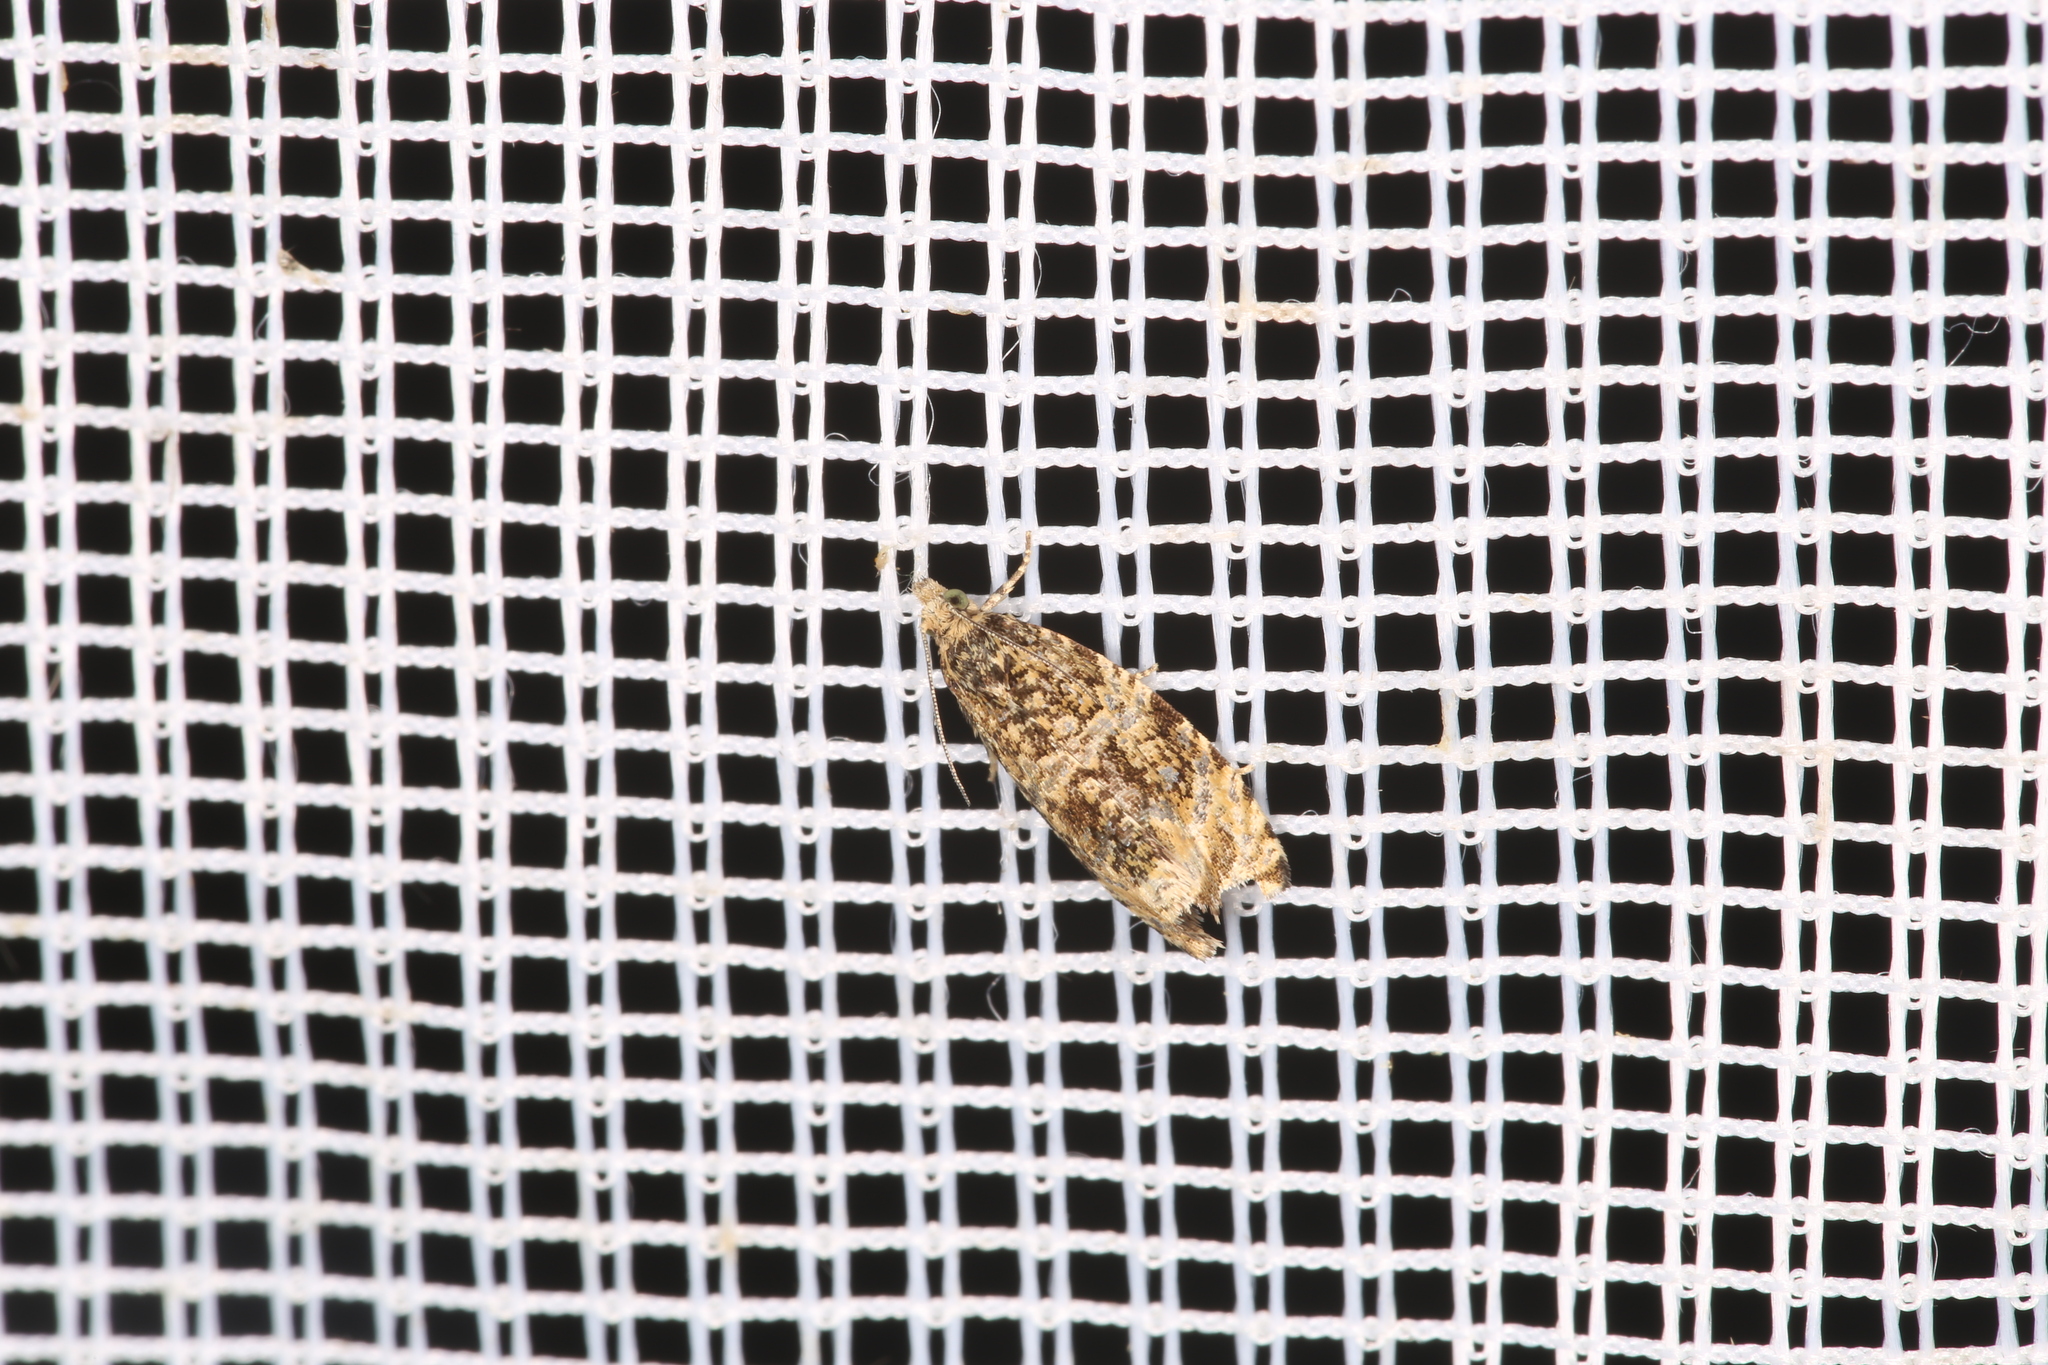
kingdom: Animalia
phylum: Arthropoda
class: Insecta
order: Lepidoptera
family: Tortricidae
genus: Syricoris
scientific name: Syricoris lacunana
